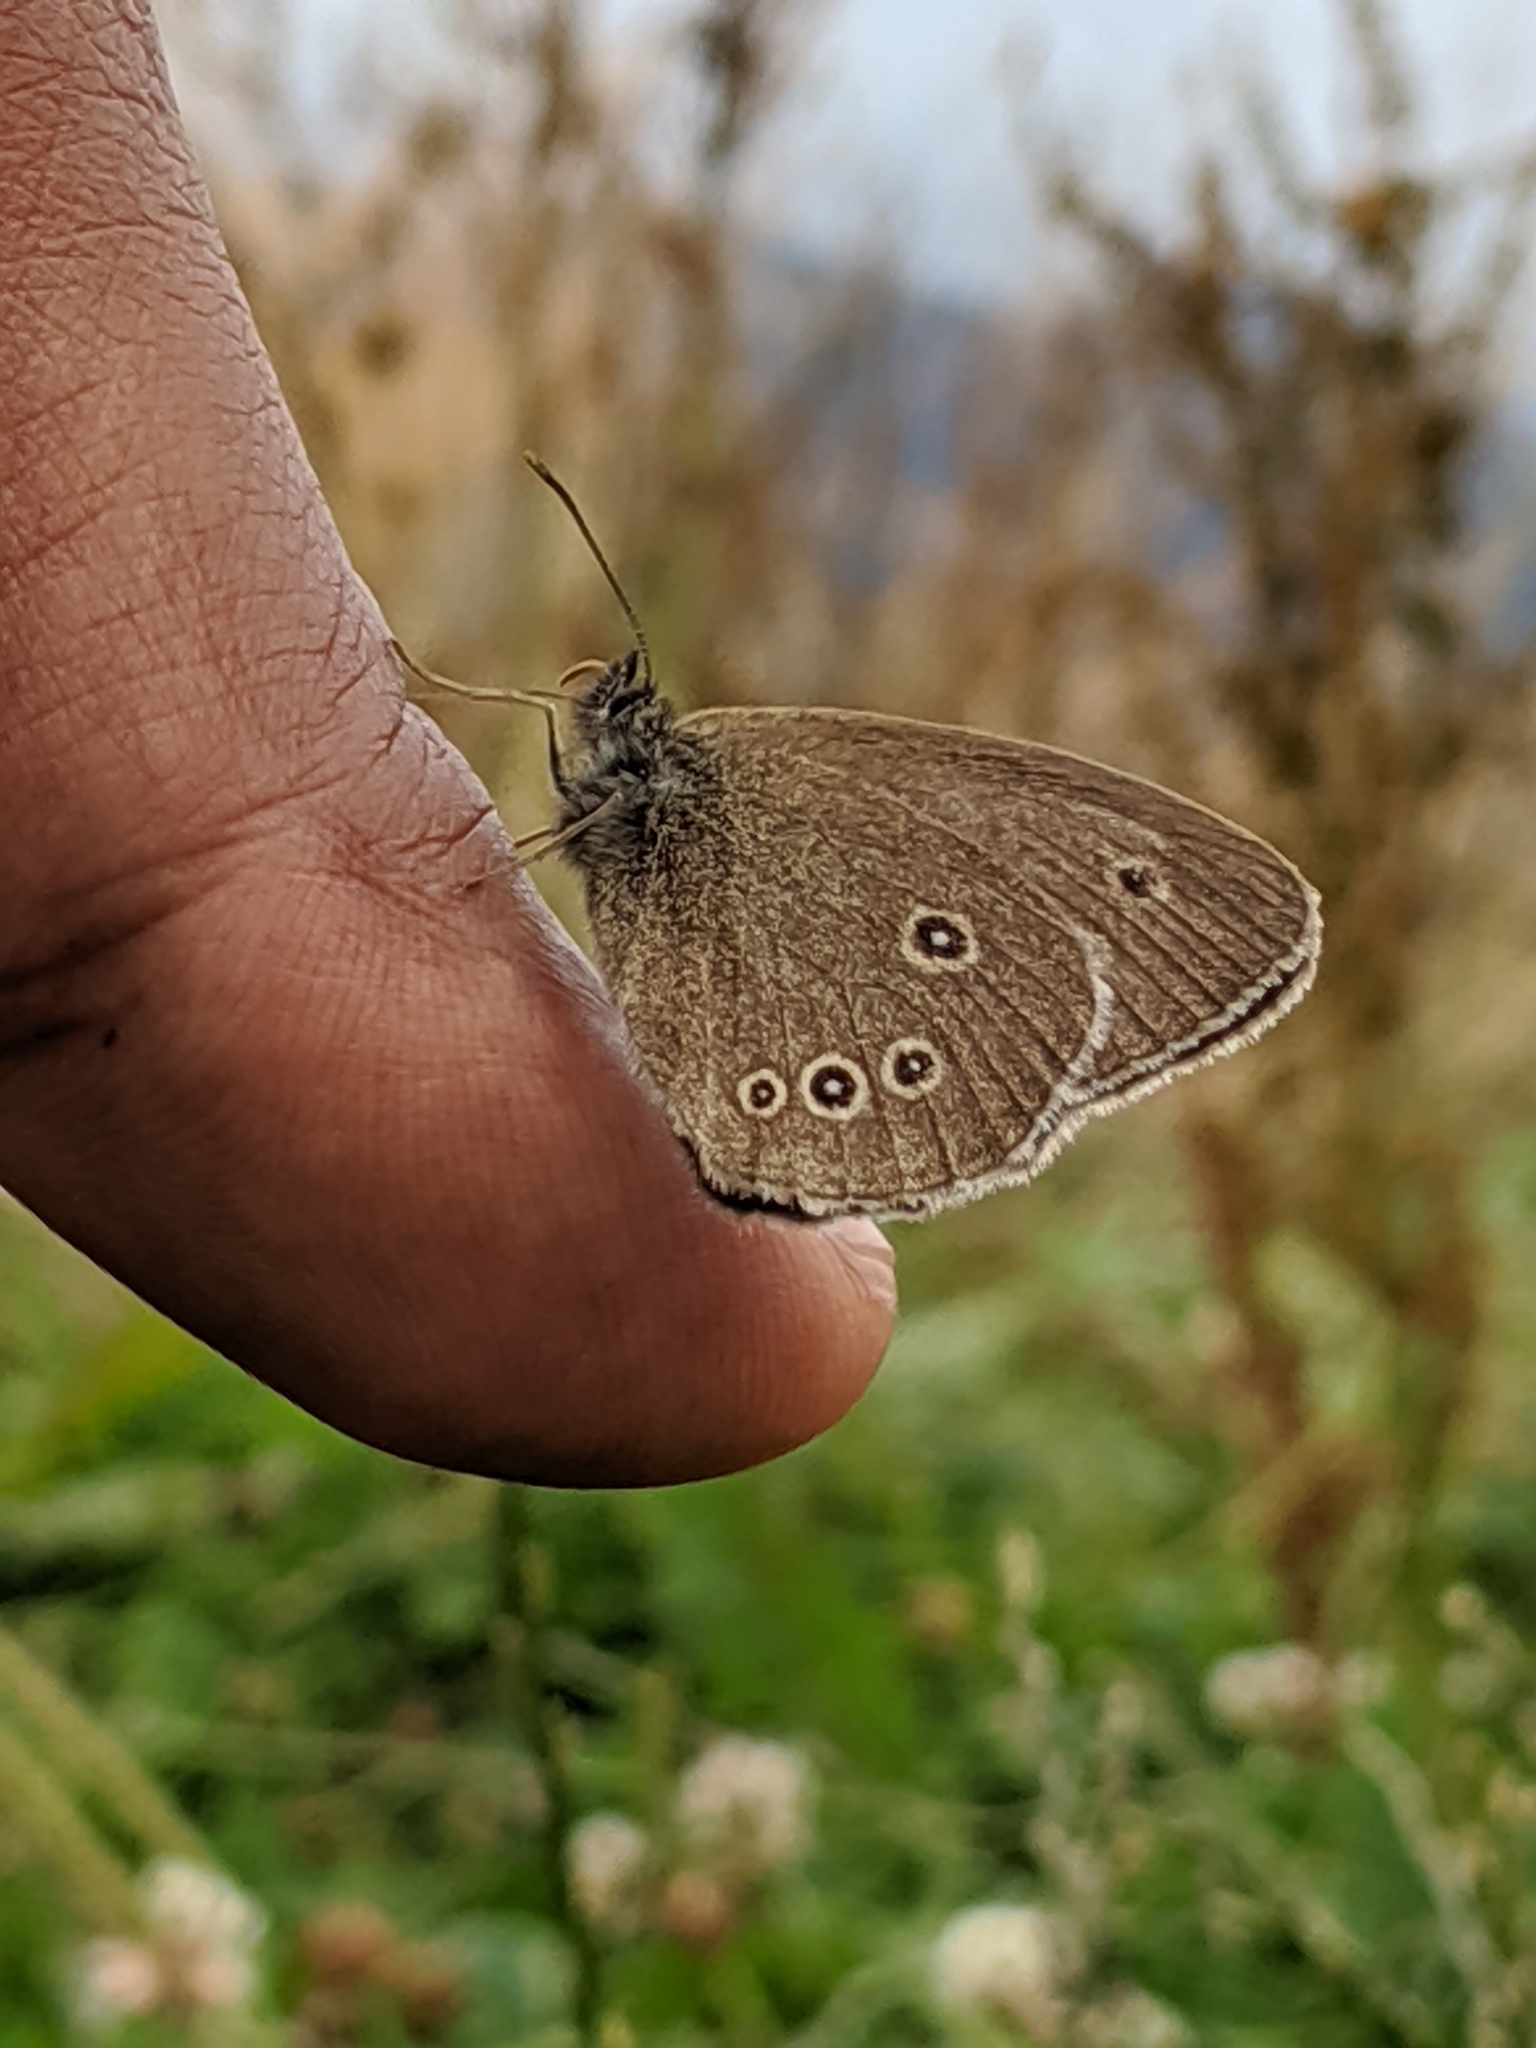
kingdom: Animalia
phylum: Arthropoda
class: Insecta
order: Lepidoptera
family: Nymphalidae
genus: Aphantopus
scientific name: Aphantopus hyperantus
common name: Ringlet
